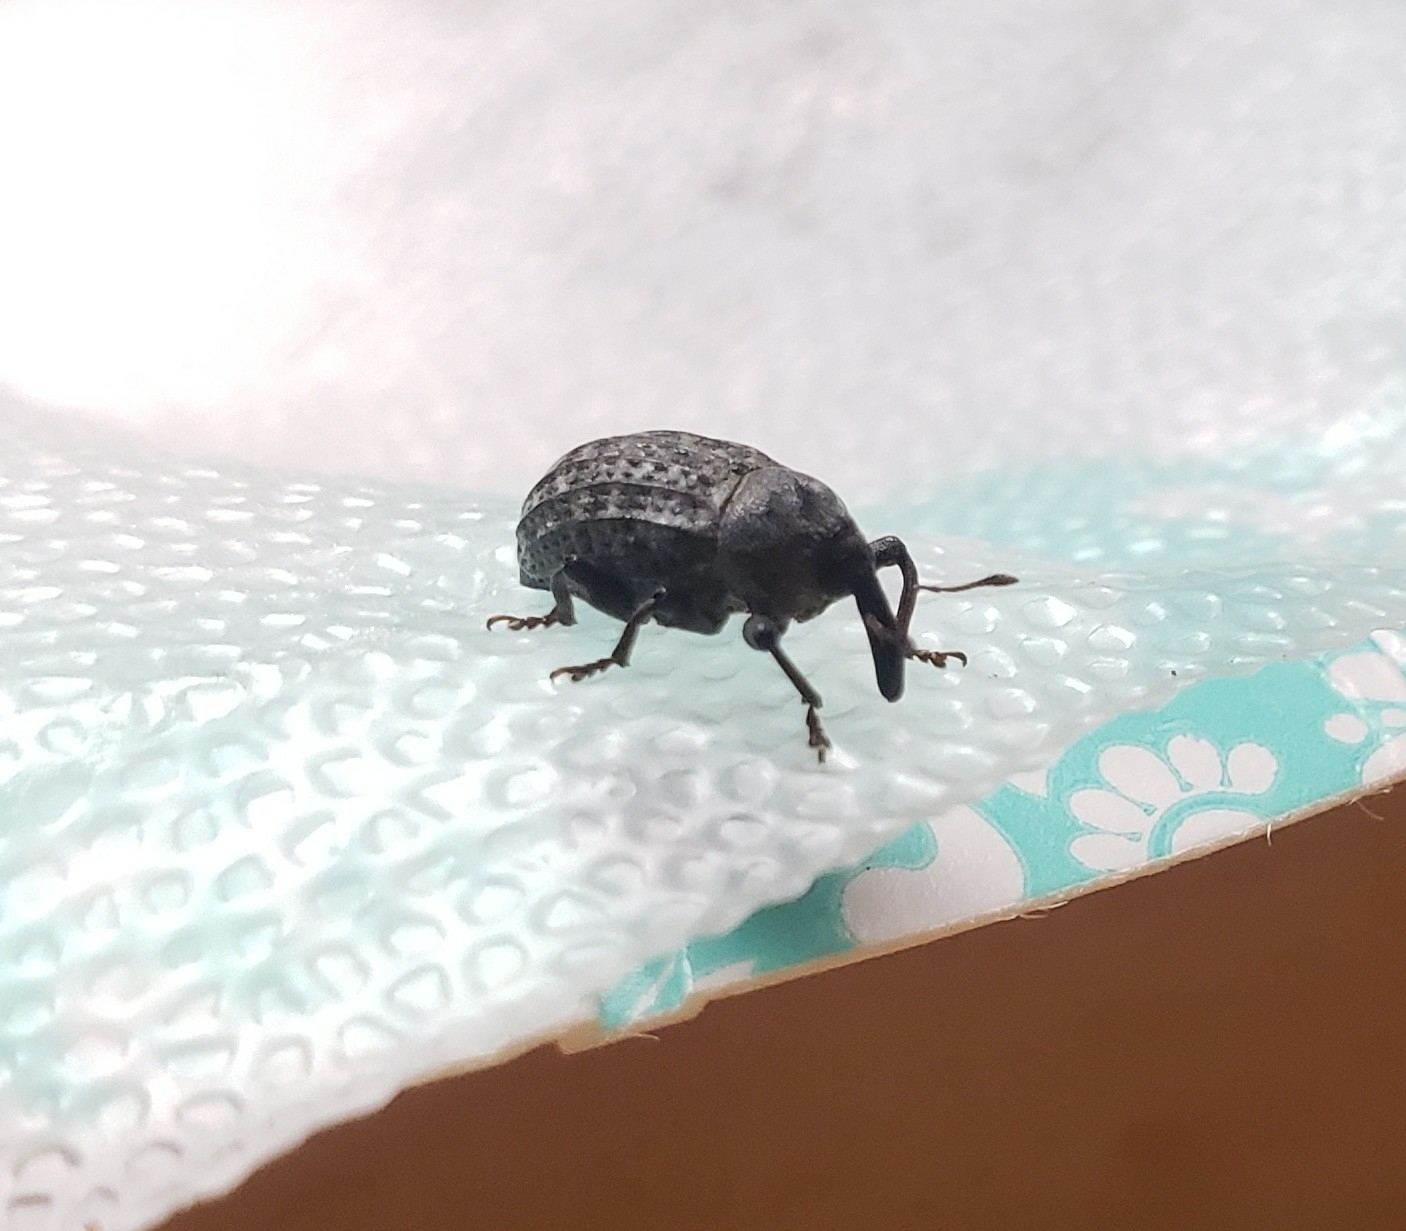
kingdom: Animalia
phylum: Arthropoda
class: Insecta
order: Coleoptera
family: Curculionidae
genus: Rhyssomatus
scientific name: Rhyssomatus lineaticollis
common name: Milkweed stem weevil
